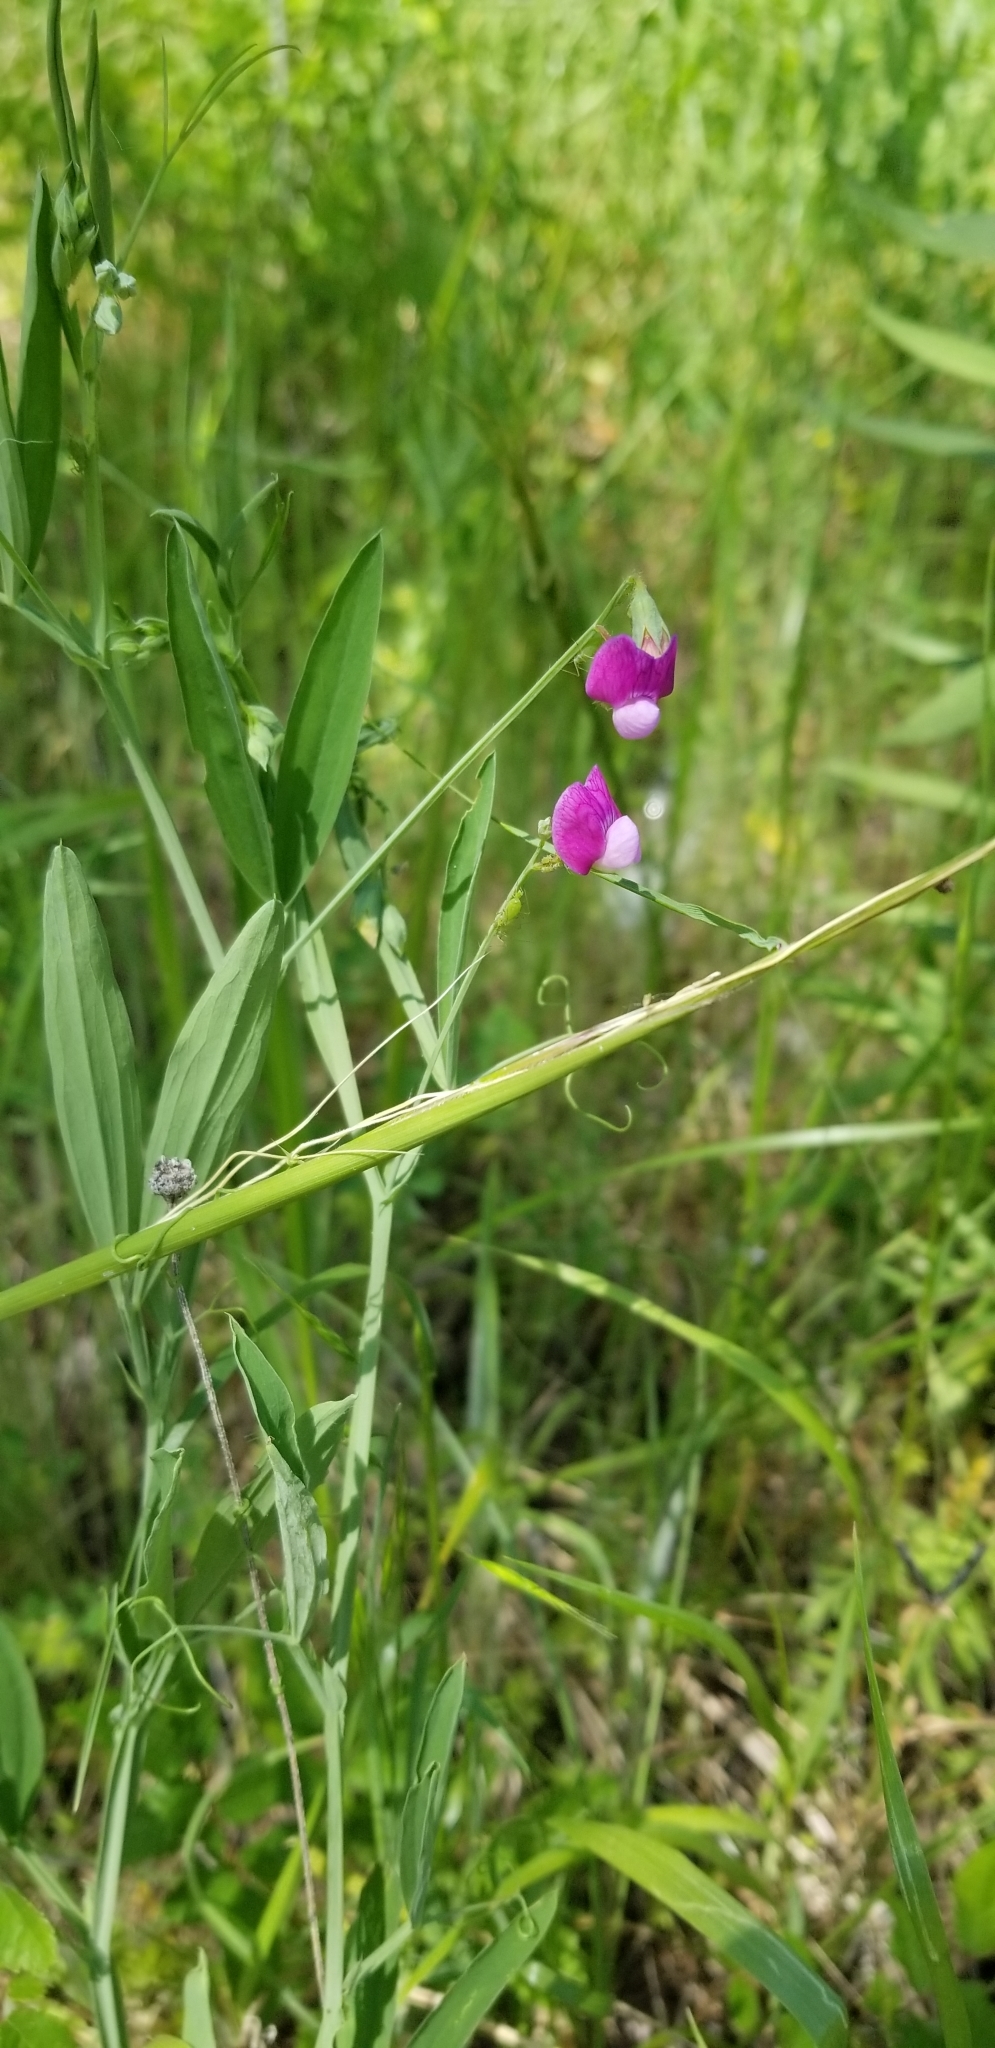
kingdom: Plantae
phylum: Tracheophyta
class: Magnoliopsida
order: Fabales
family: Fabaceae
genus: Lathyrus
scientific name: Lathyrus hirsutus
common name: Hairy vetchling
